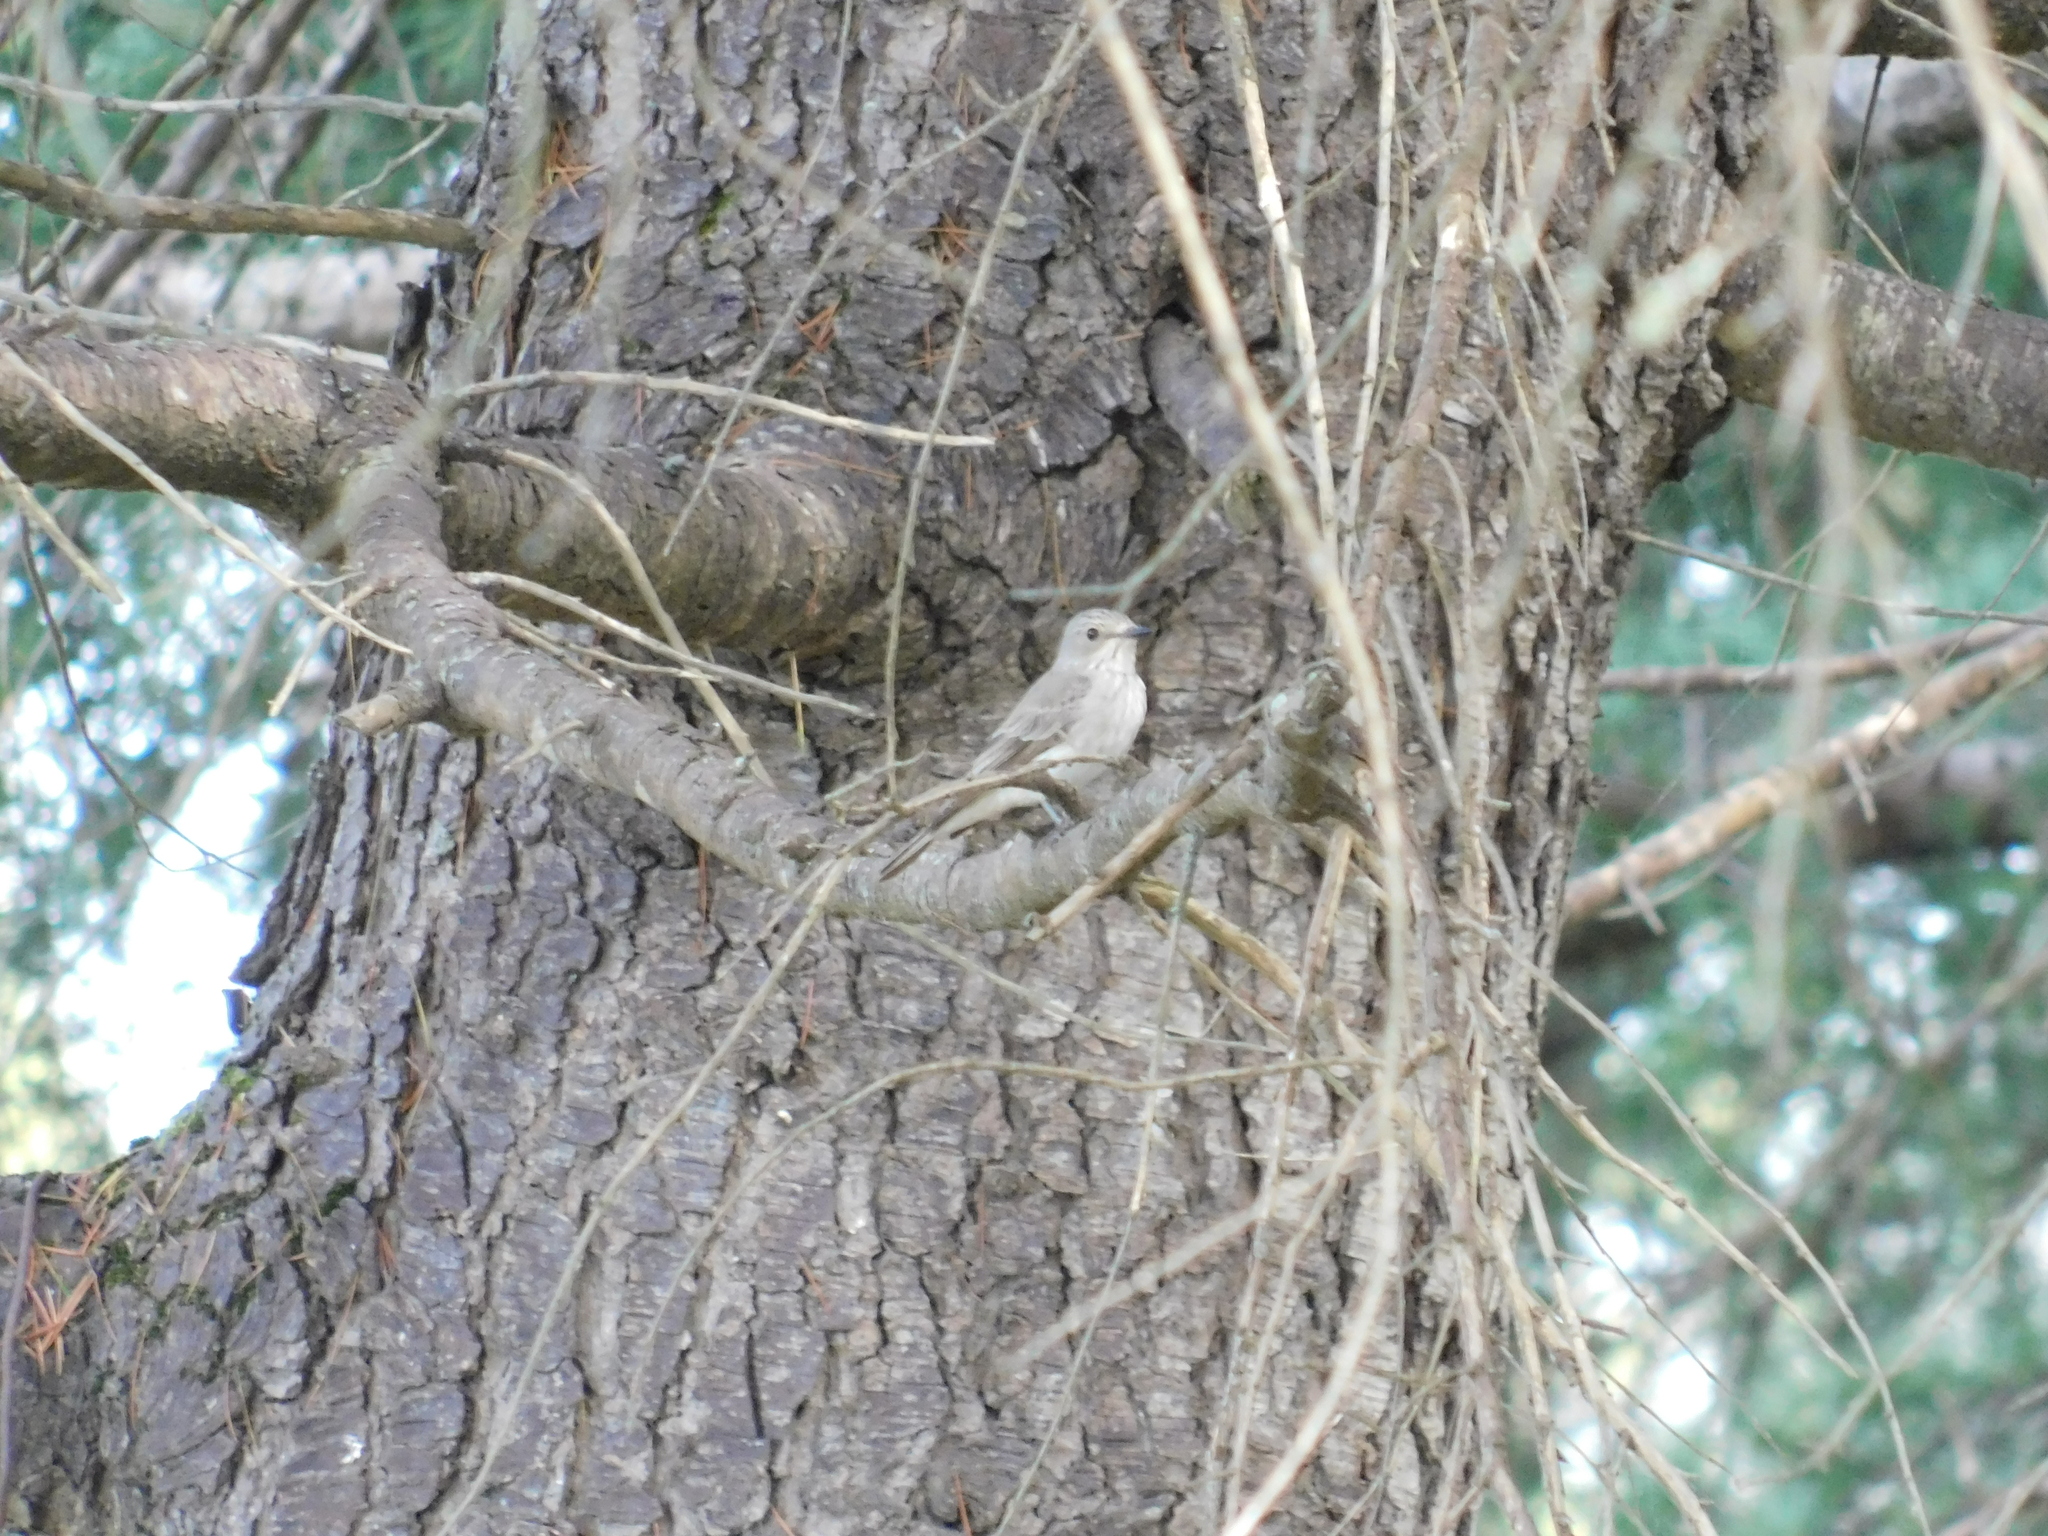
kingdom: Animalia
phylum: Chordata
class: Aves
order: Passeriformes
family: Muscicapidae
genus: Muscicapa
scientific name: Muscicapa striata
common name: Spotted flycatcher
